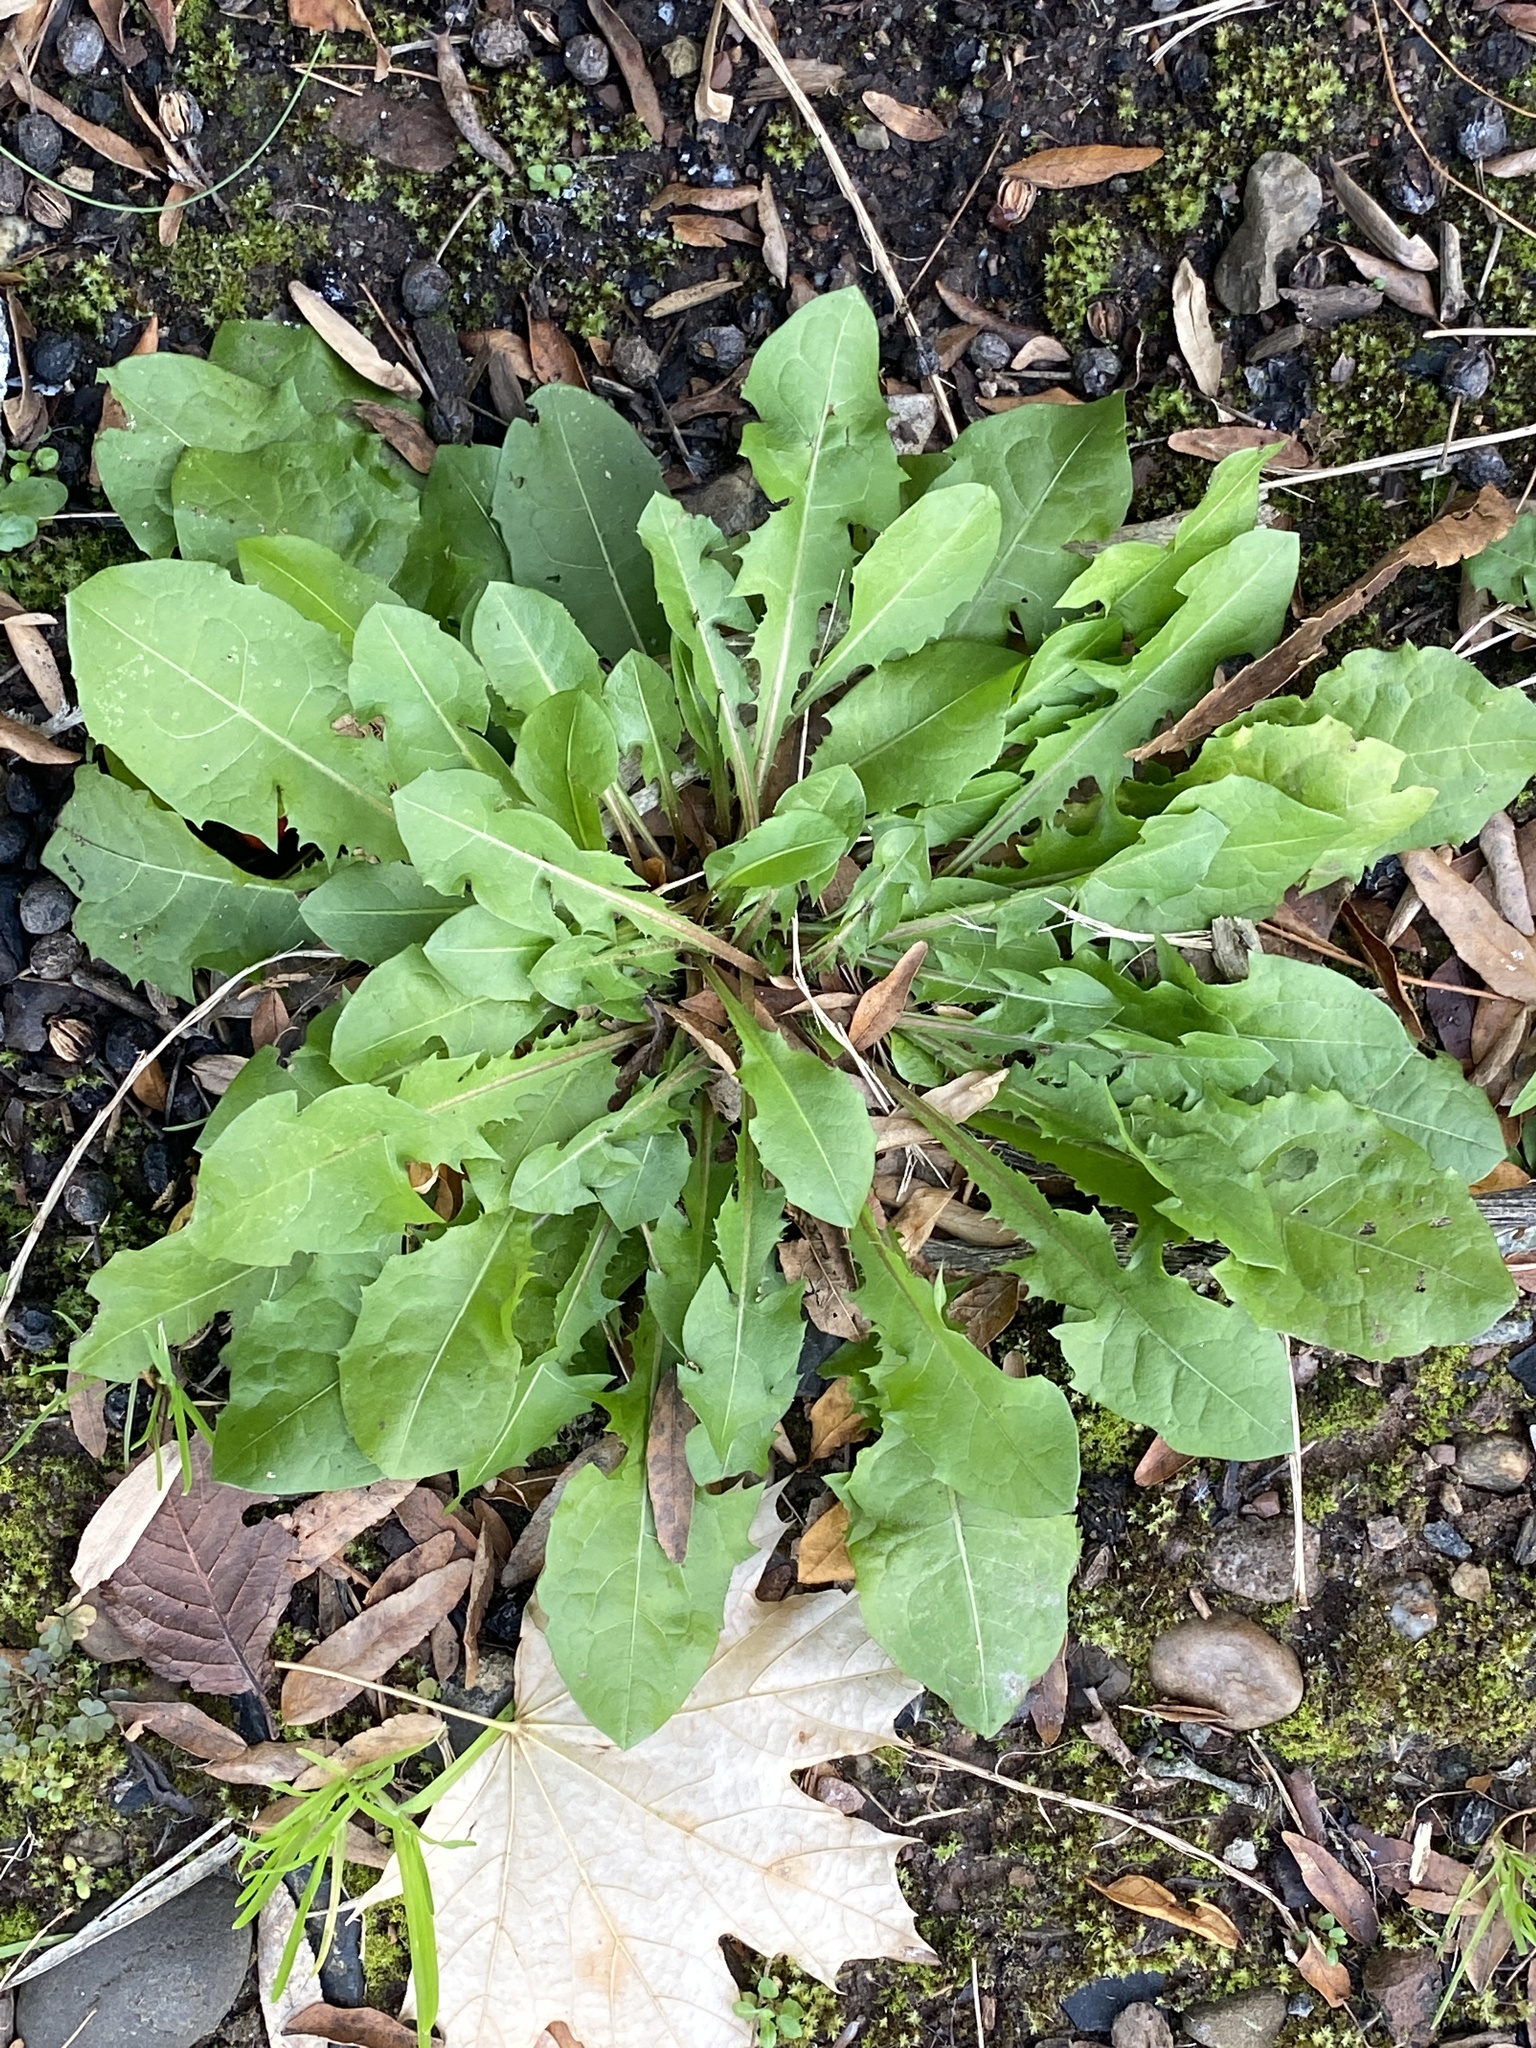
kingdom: Plantae
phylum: Tracheophyta
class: Magnoliopsida
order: Asterales
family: Asteraceae
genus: Taraxacum
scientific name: Taraxacum officinale
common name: Common dandelion
